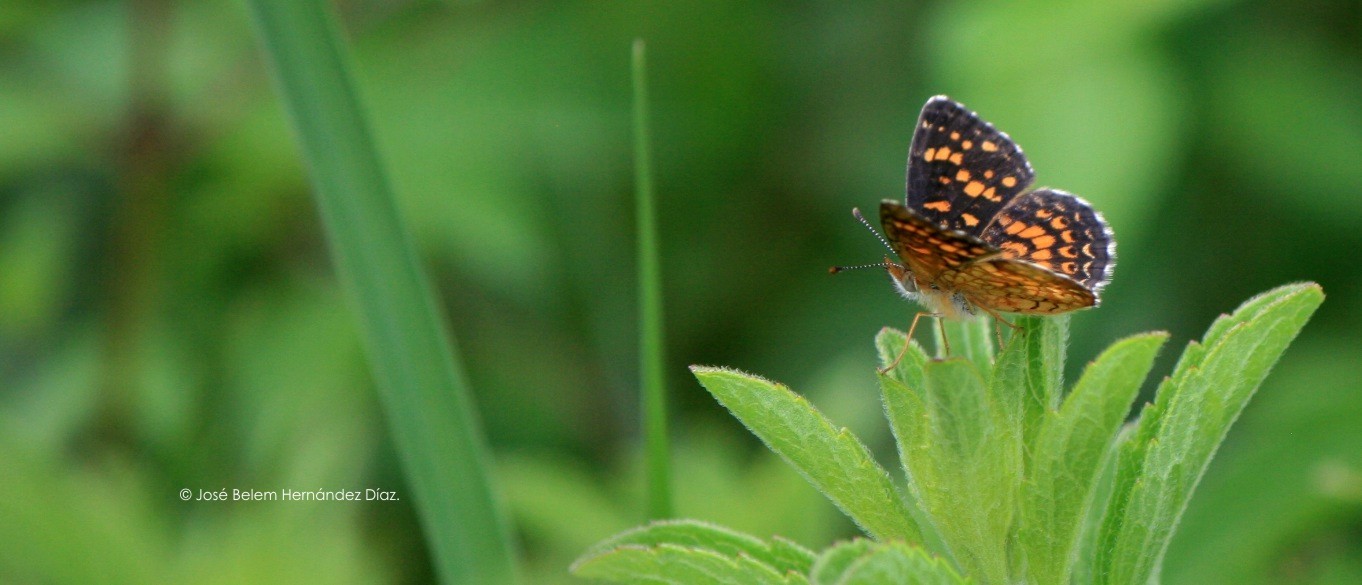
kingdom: Animalia
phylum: Arthropoda
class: Insecta
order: Lepidoptera
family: Nymphalidae
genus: Phyciodes
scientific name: Phyciodes vesta
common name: Vesta crescent
